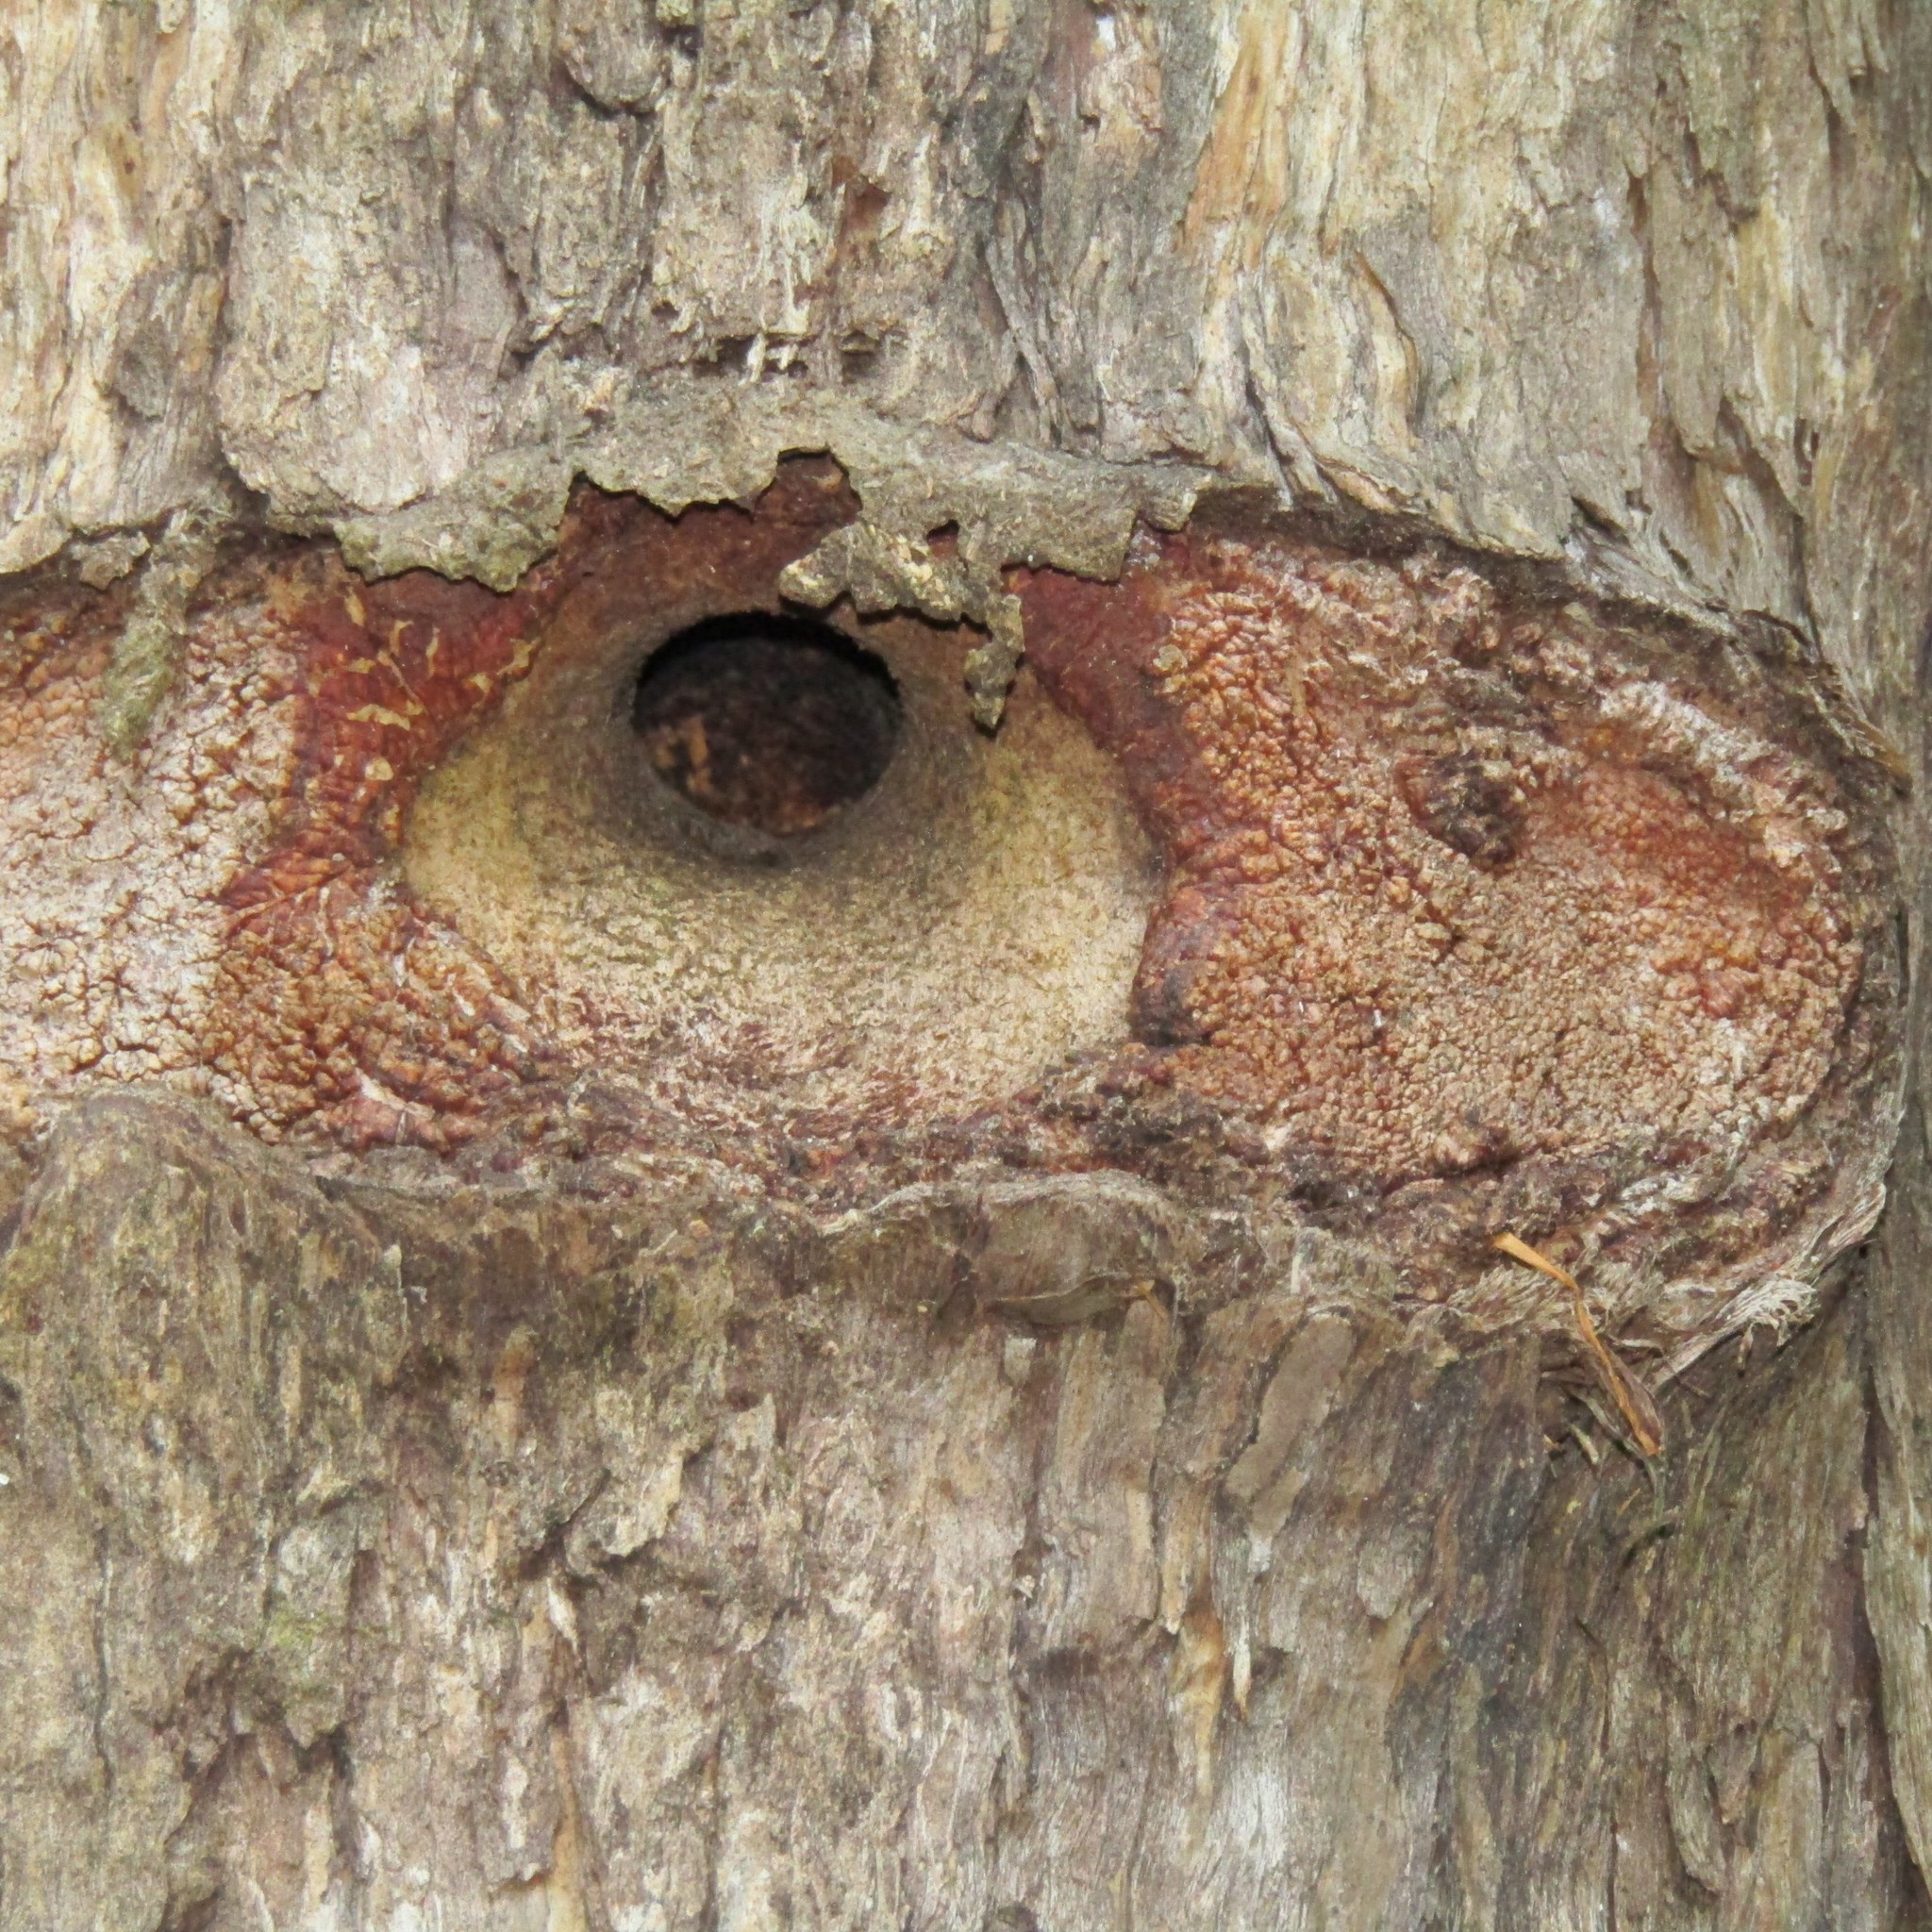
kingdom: Animalia
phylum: Arthropoda
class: Insecta
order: Lepidoptera
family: Hepialidae
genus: Aenetus
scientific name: Aenetus virescens
